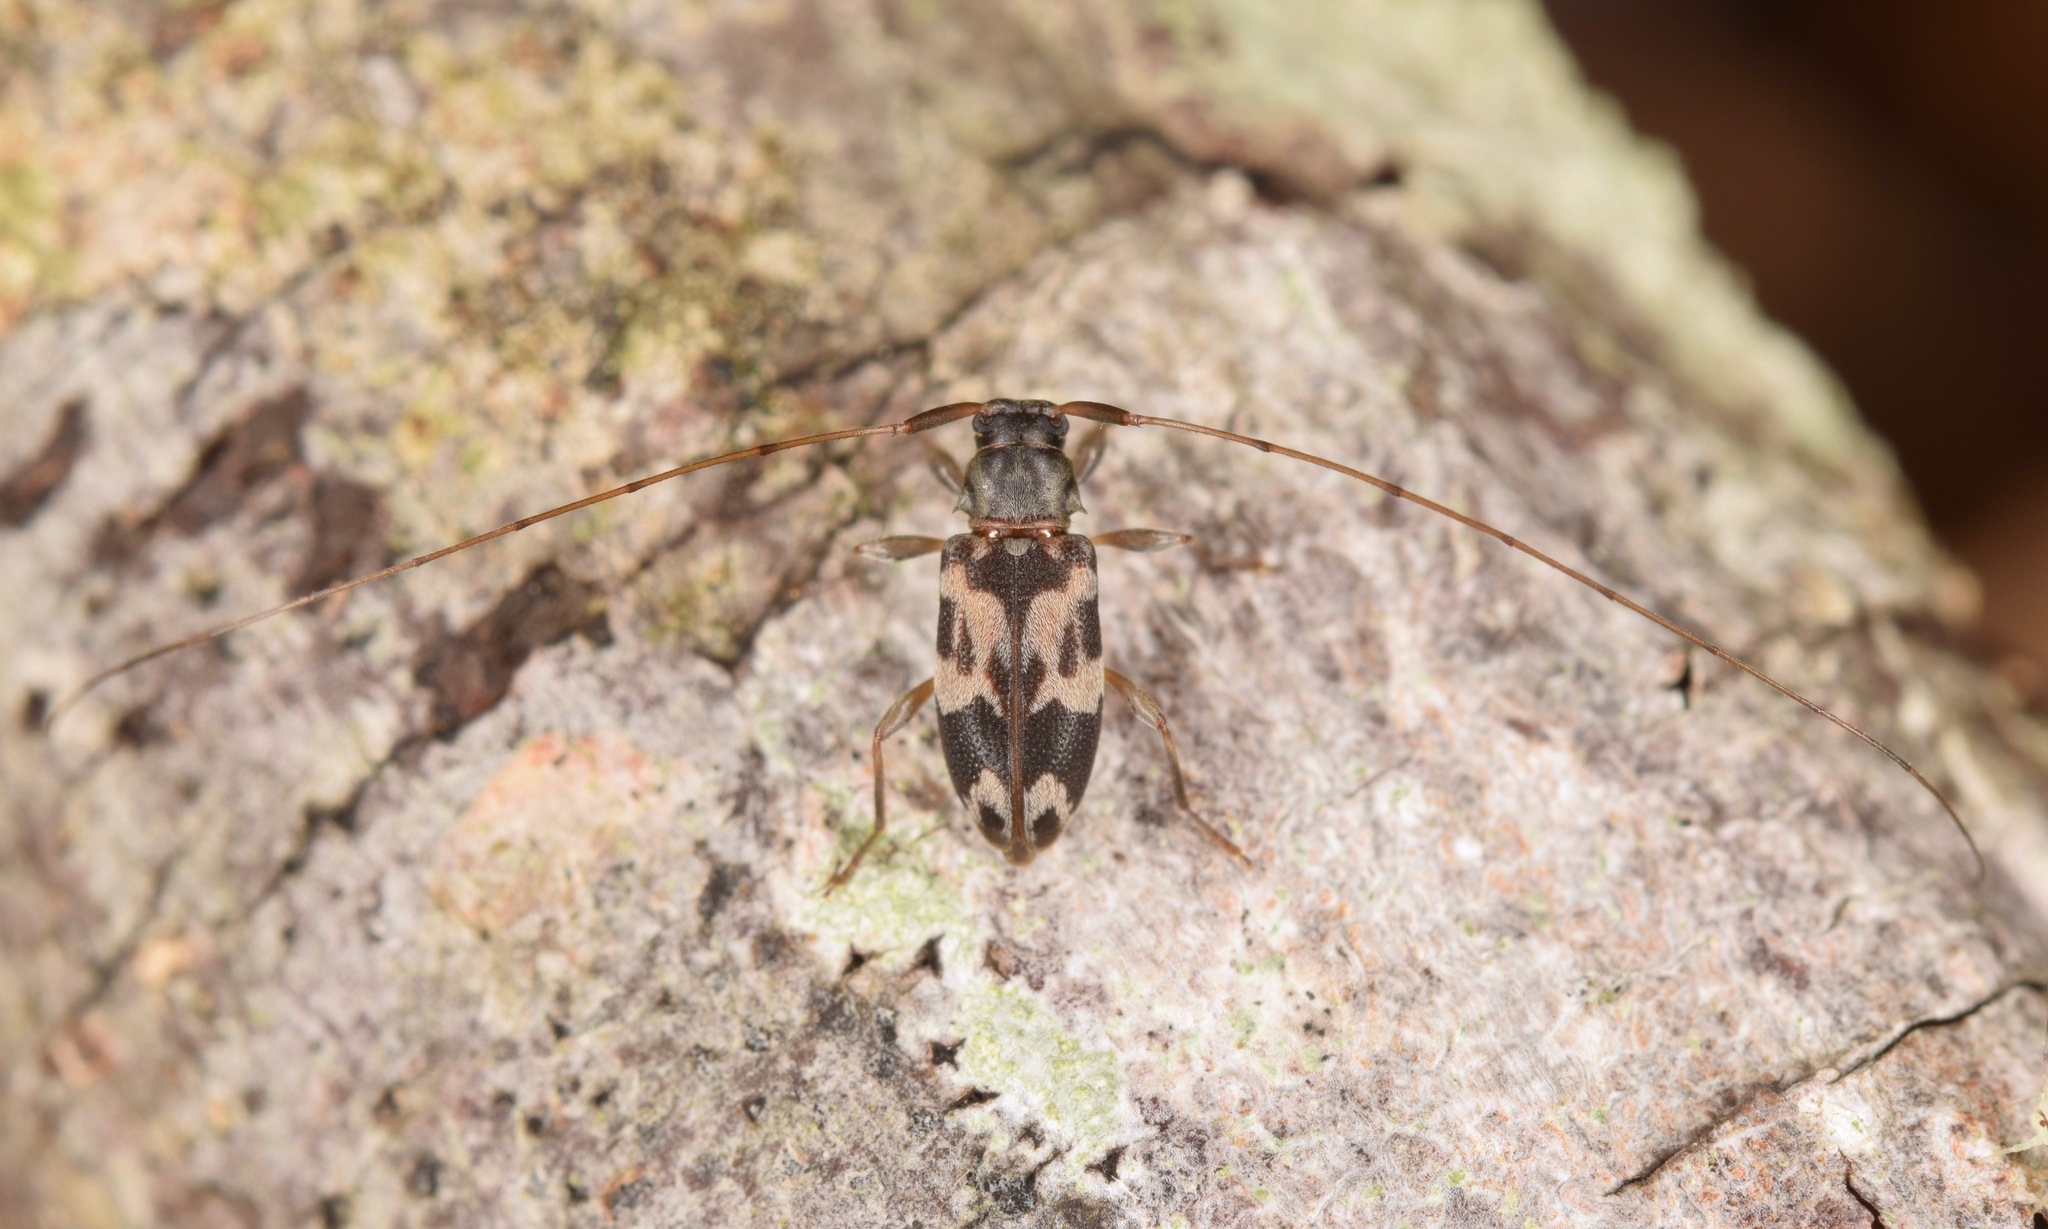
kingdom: Animalia
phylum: Arthropoda
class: Insecta
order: Coleoptera
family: Cerambycidae
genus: Urgleptes
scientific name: Urgleptes facetus
